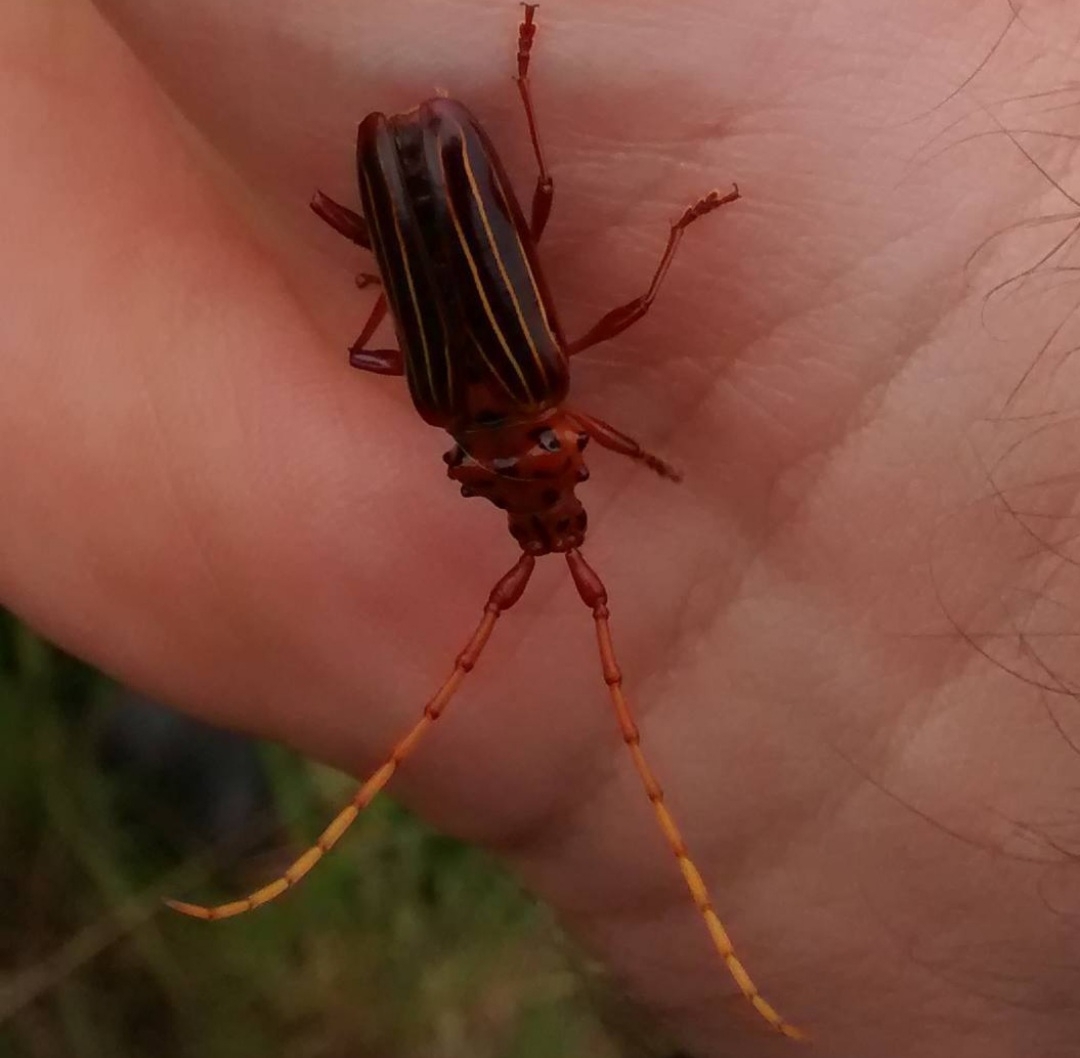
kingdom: Animalia
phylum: Arthropoda
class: Insecta
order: Coleoptera
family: Cerambycidae
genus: Chydarteres
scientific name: Chydarteres striatus
